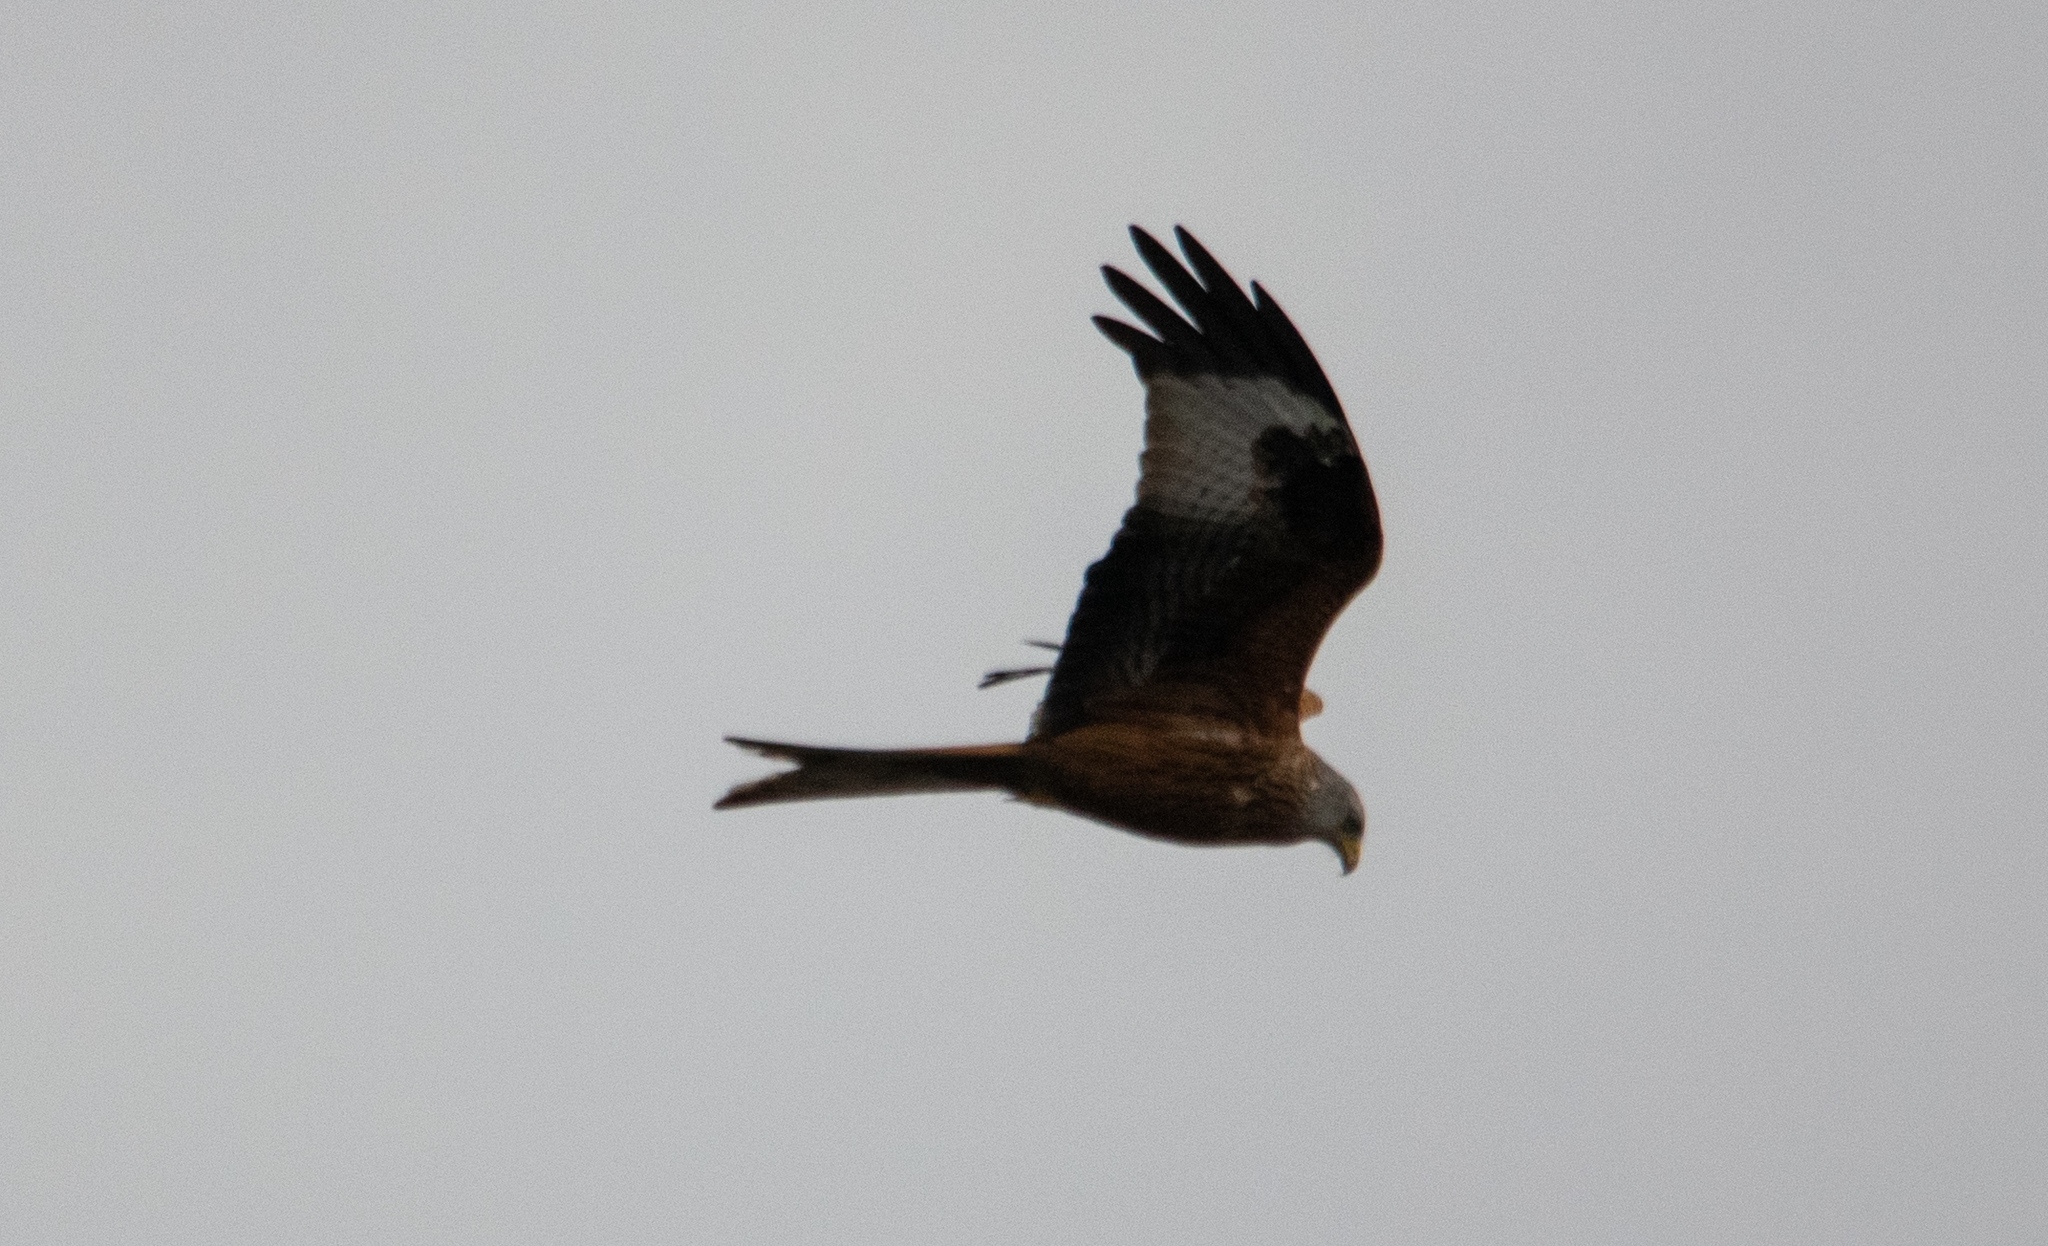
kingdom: Animalia
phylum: Chordata
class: Aves
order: Accipitriformes
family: Accipitridae
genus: Milvus
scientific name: Milvus milvus
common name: Red kite
